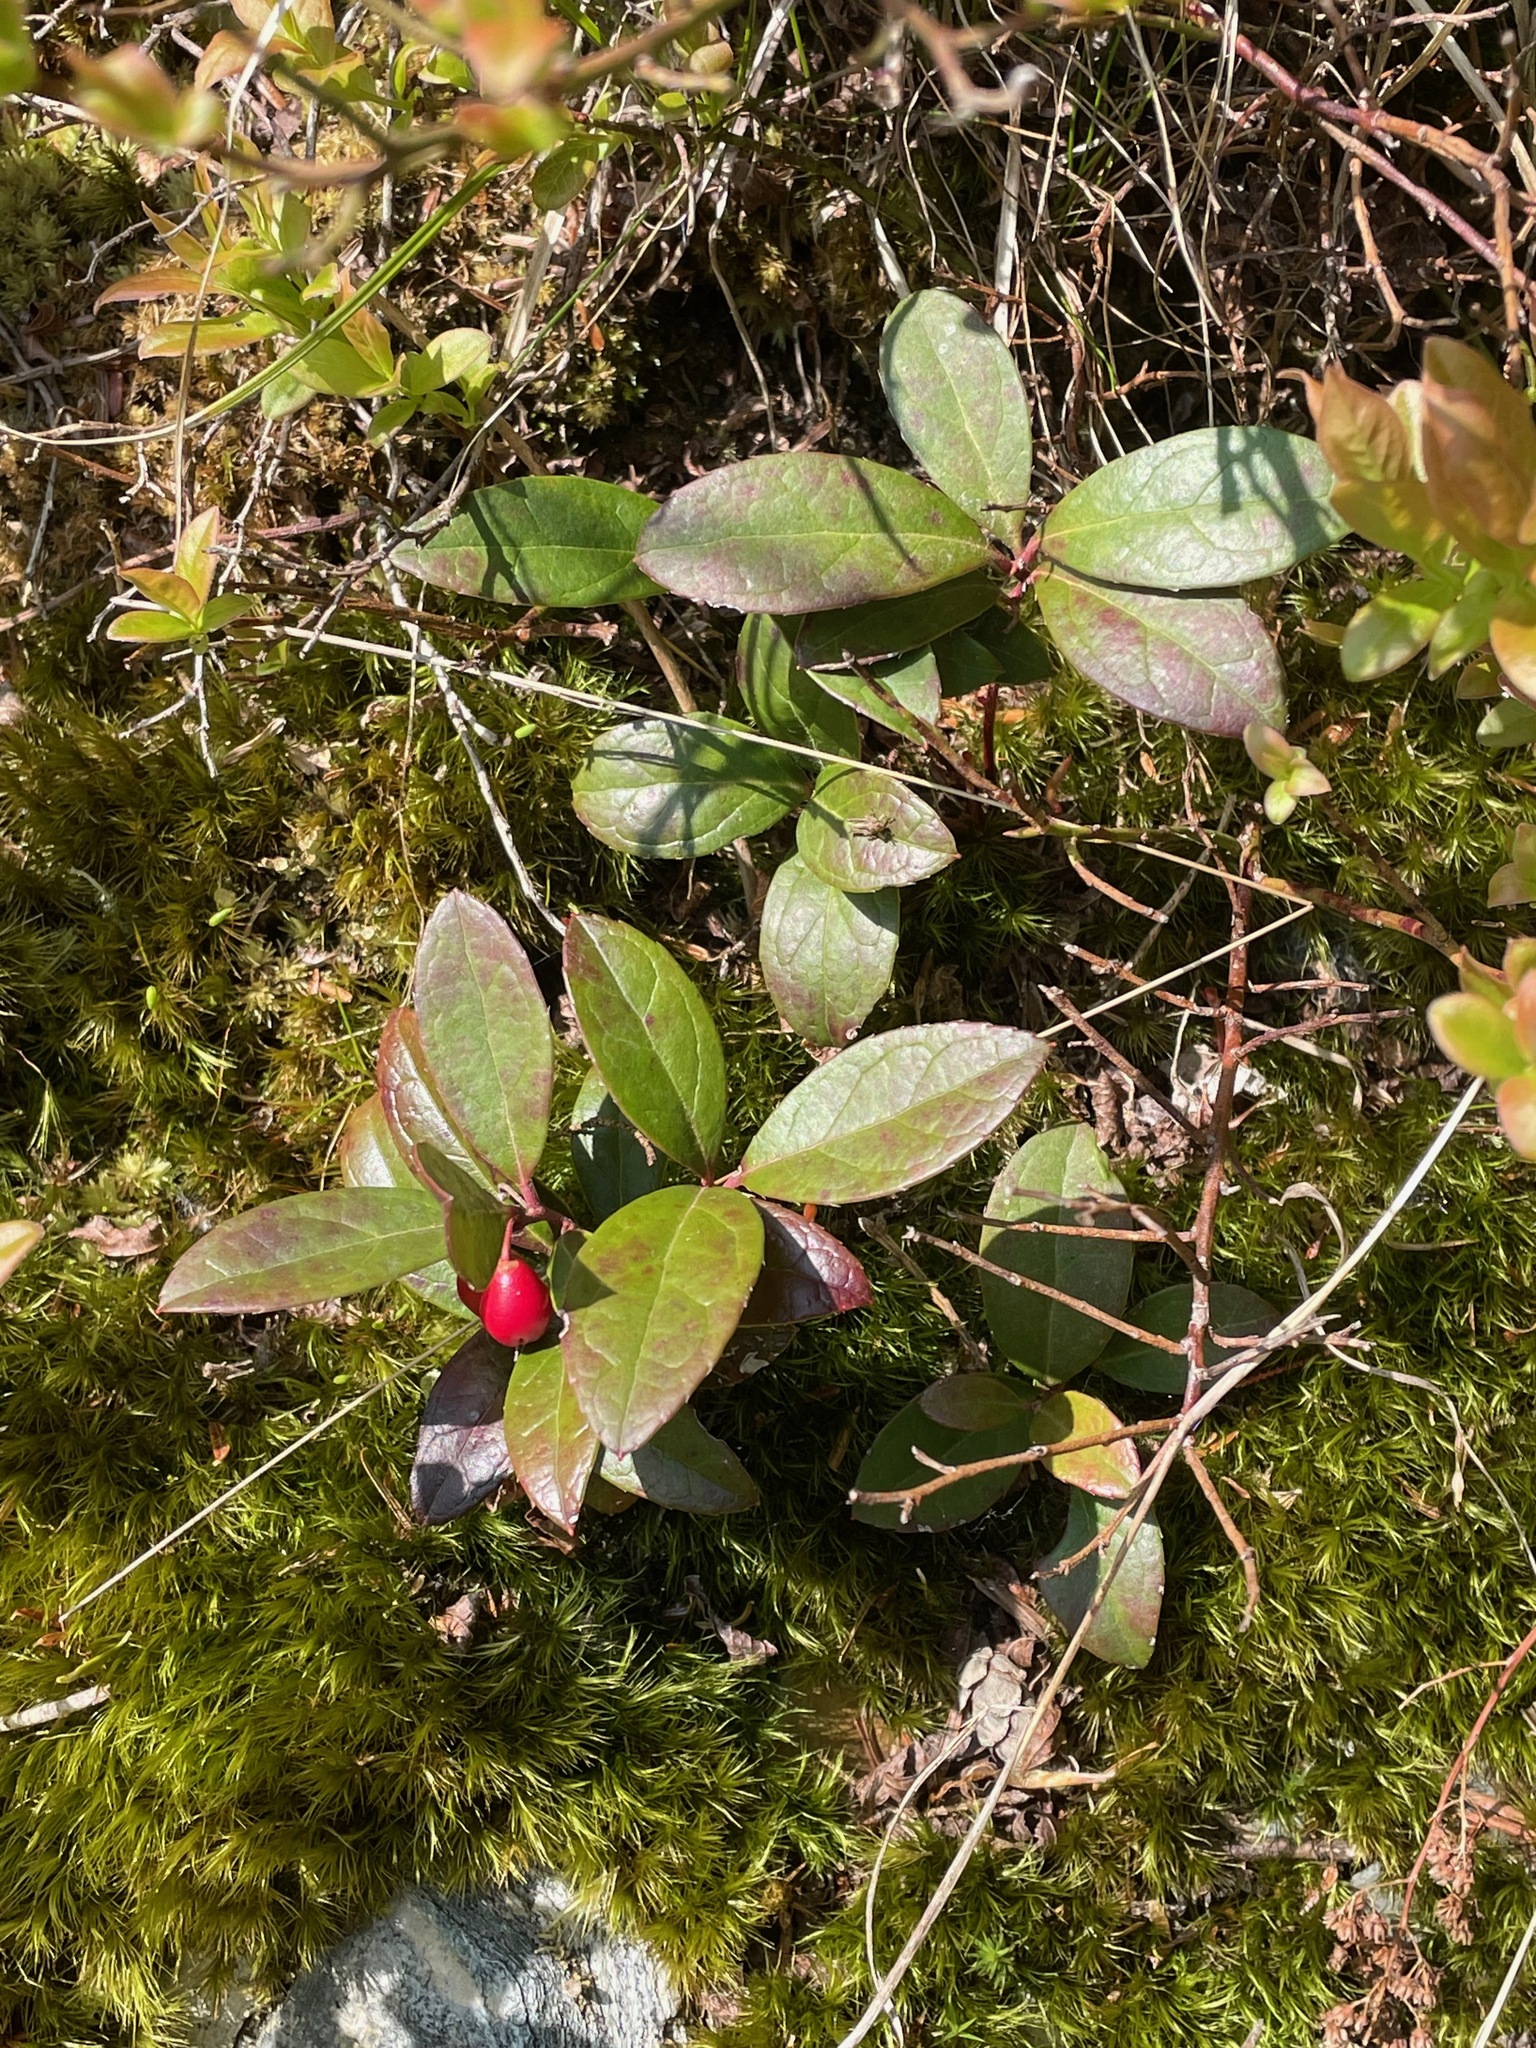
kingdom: Plantae
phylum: Tracheophyta
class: Magnoliopsida
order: Ericales
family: Ericaceae
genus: Gaultheria
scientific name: Gaultheria procumbens
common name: Checkerberry
